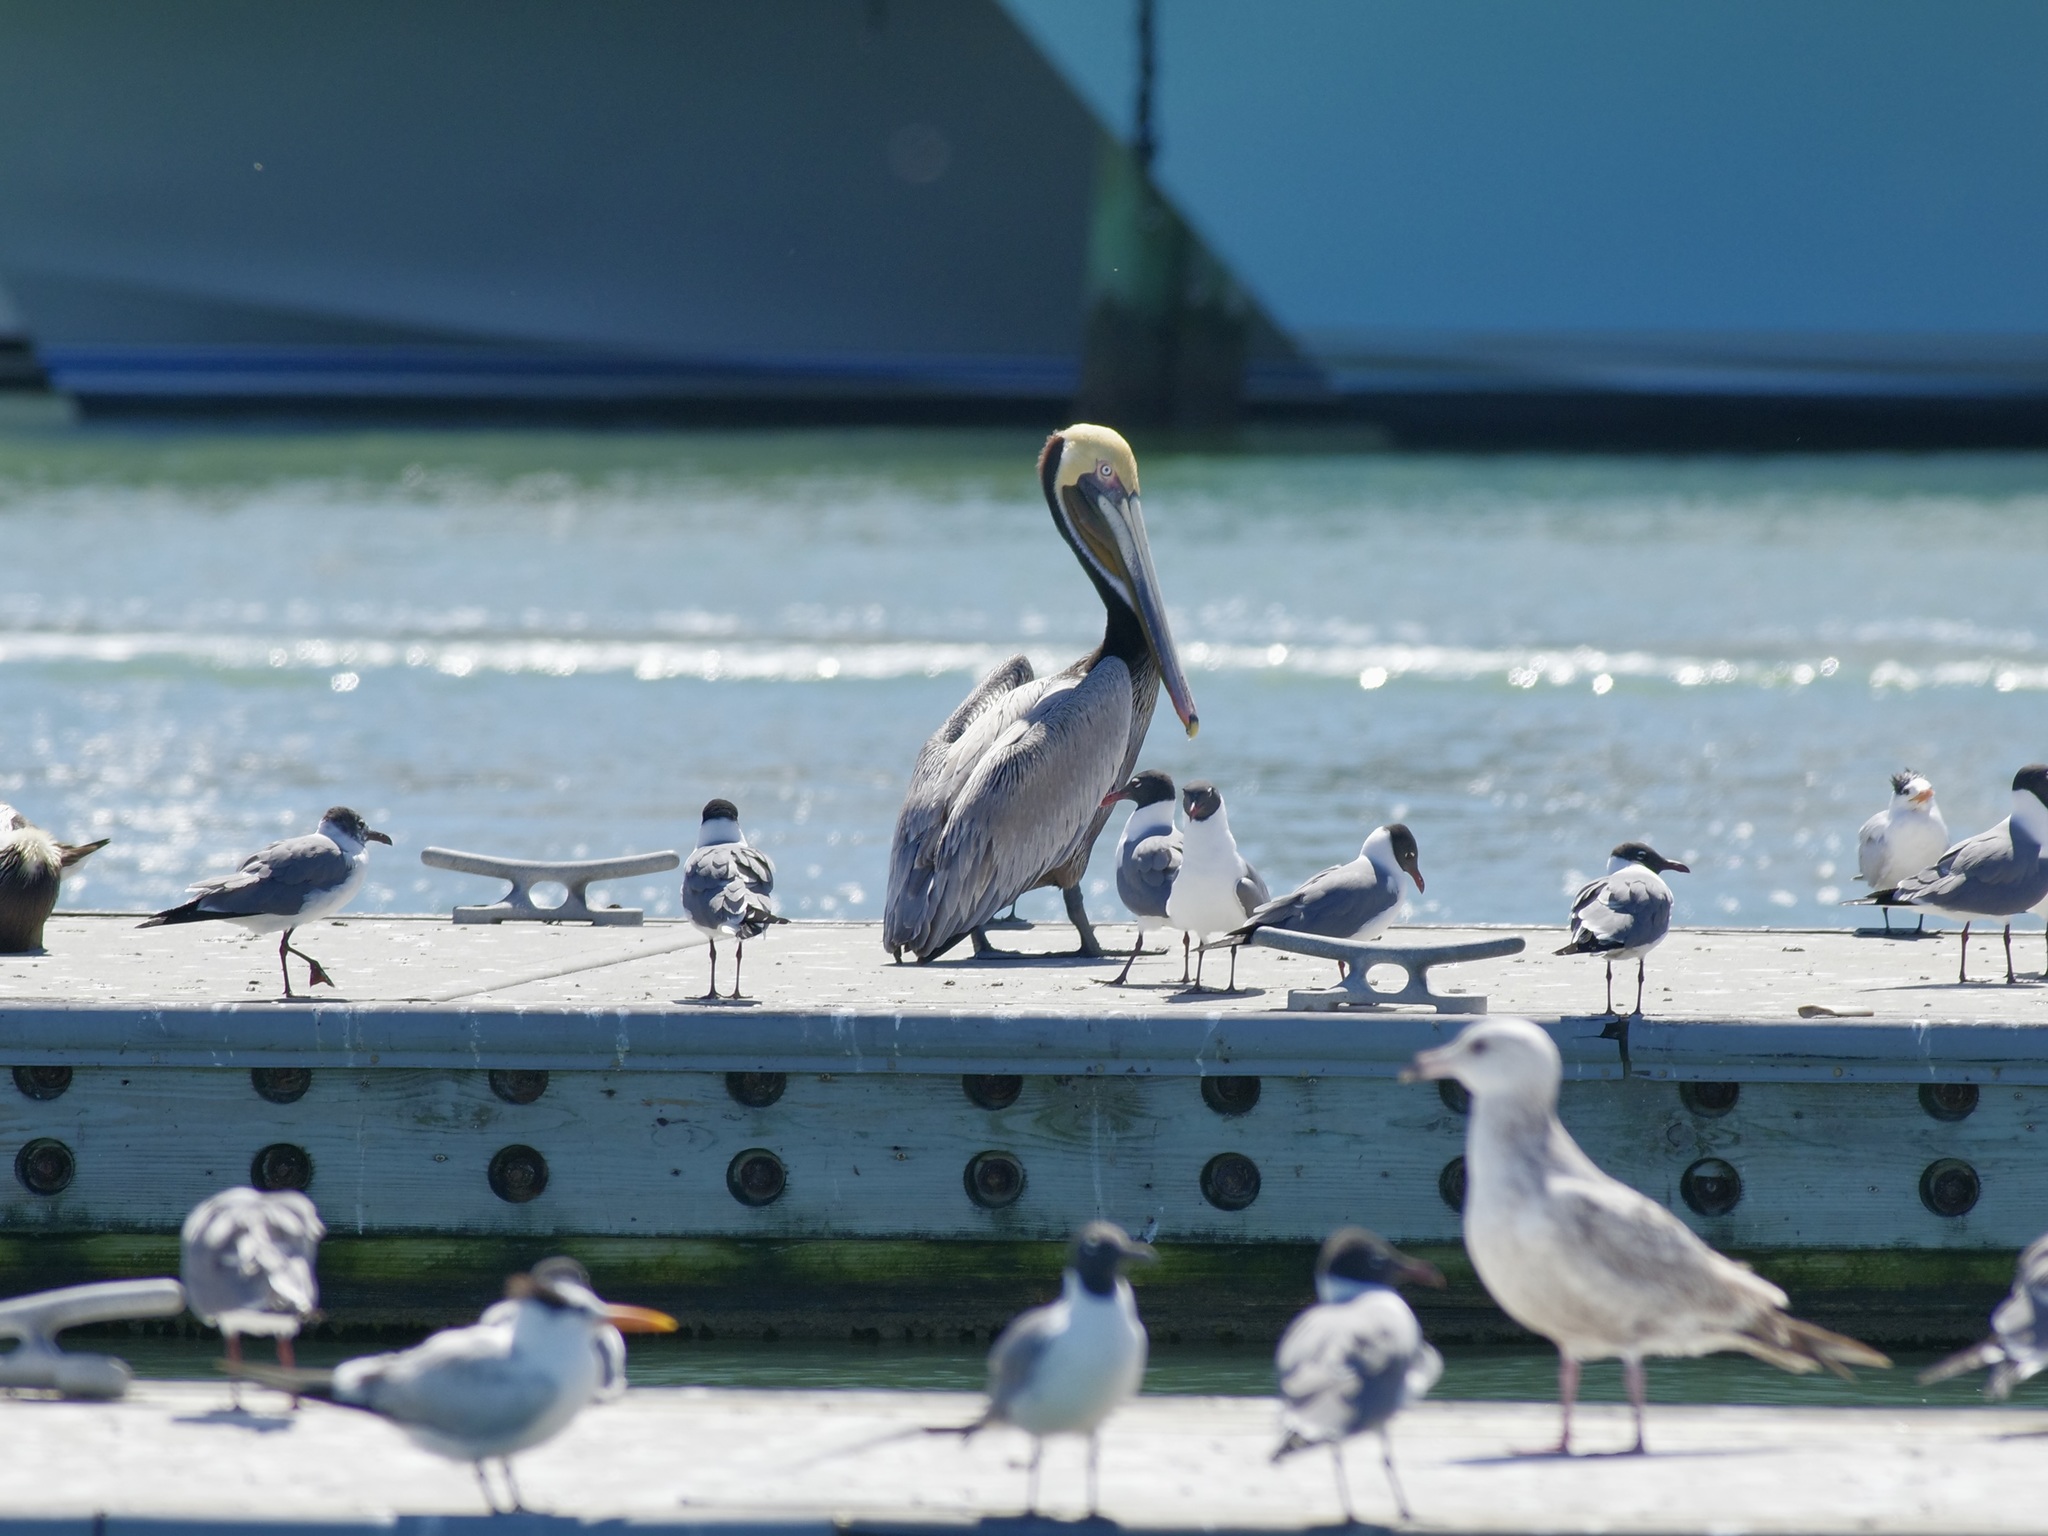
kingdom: Animalia
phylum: Chordata
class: Aves
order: Pelecaniformes
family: Pelecanidae
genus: Pelecanus
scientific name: Pelecanus occidentalis
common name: Brown pelican
